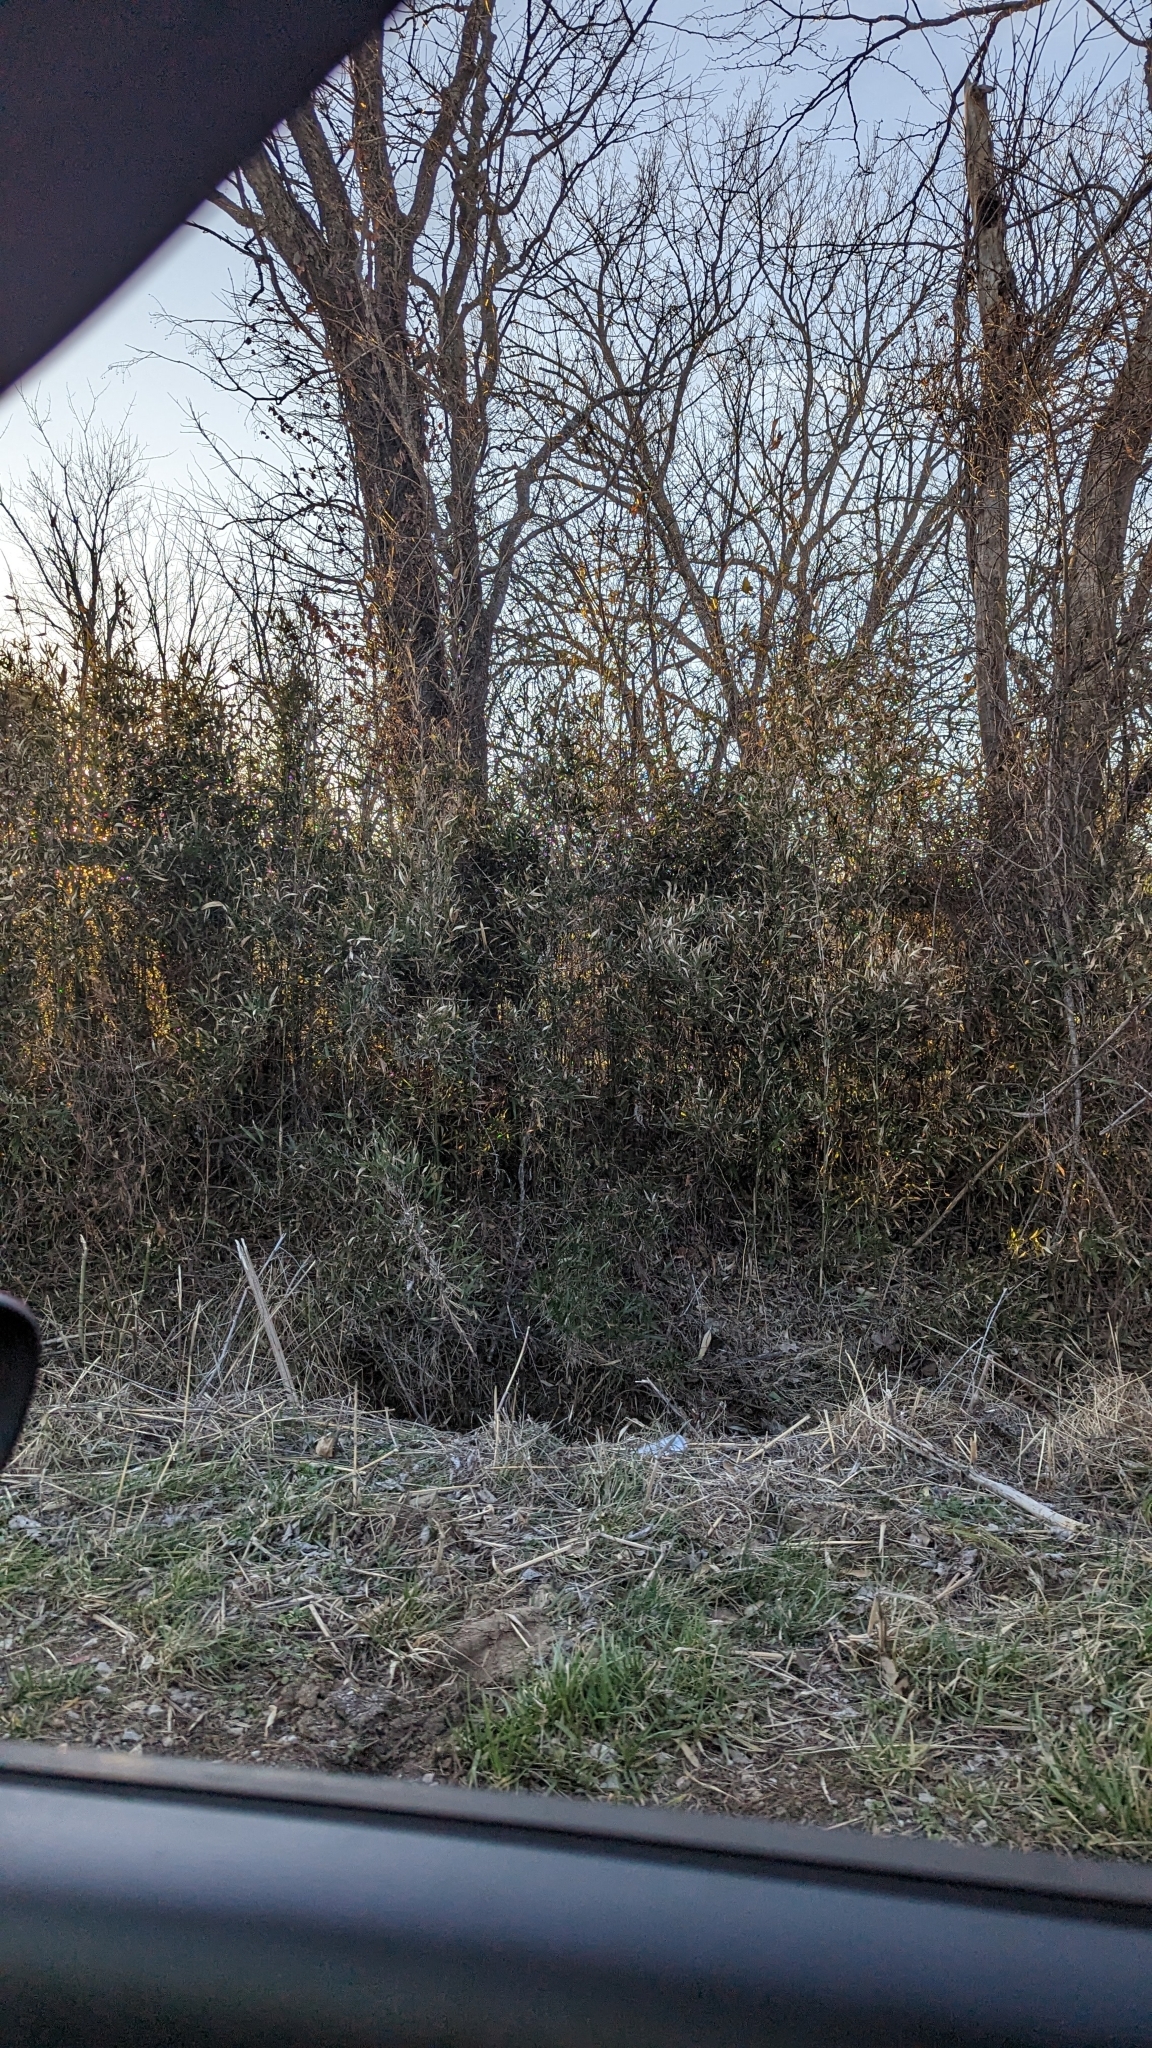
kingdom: Plantae
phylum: Tracheophyta
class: Liliopsida
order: Poales
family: Poaceae
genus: Arundinaria
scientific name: Arundinaria gigantea
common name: Giant cane
